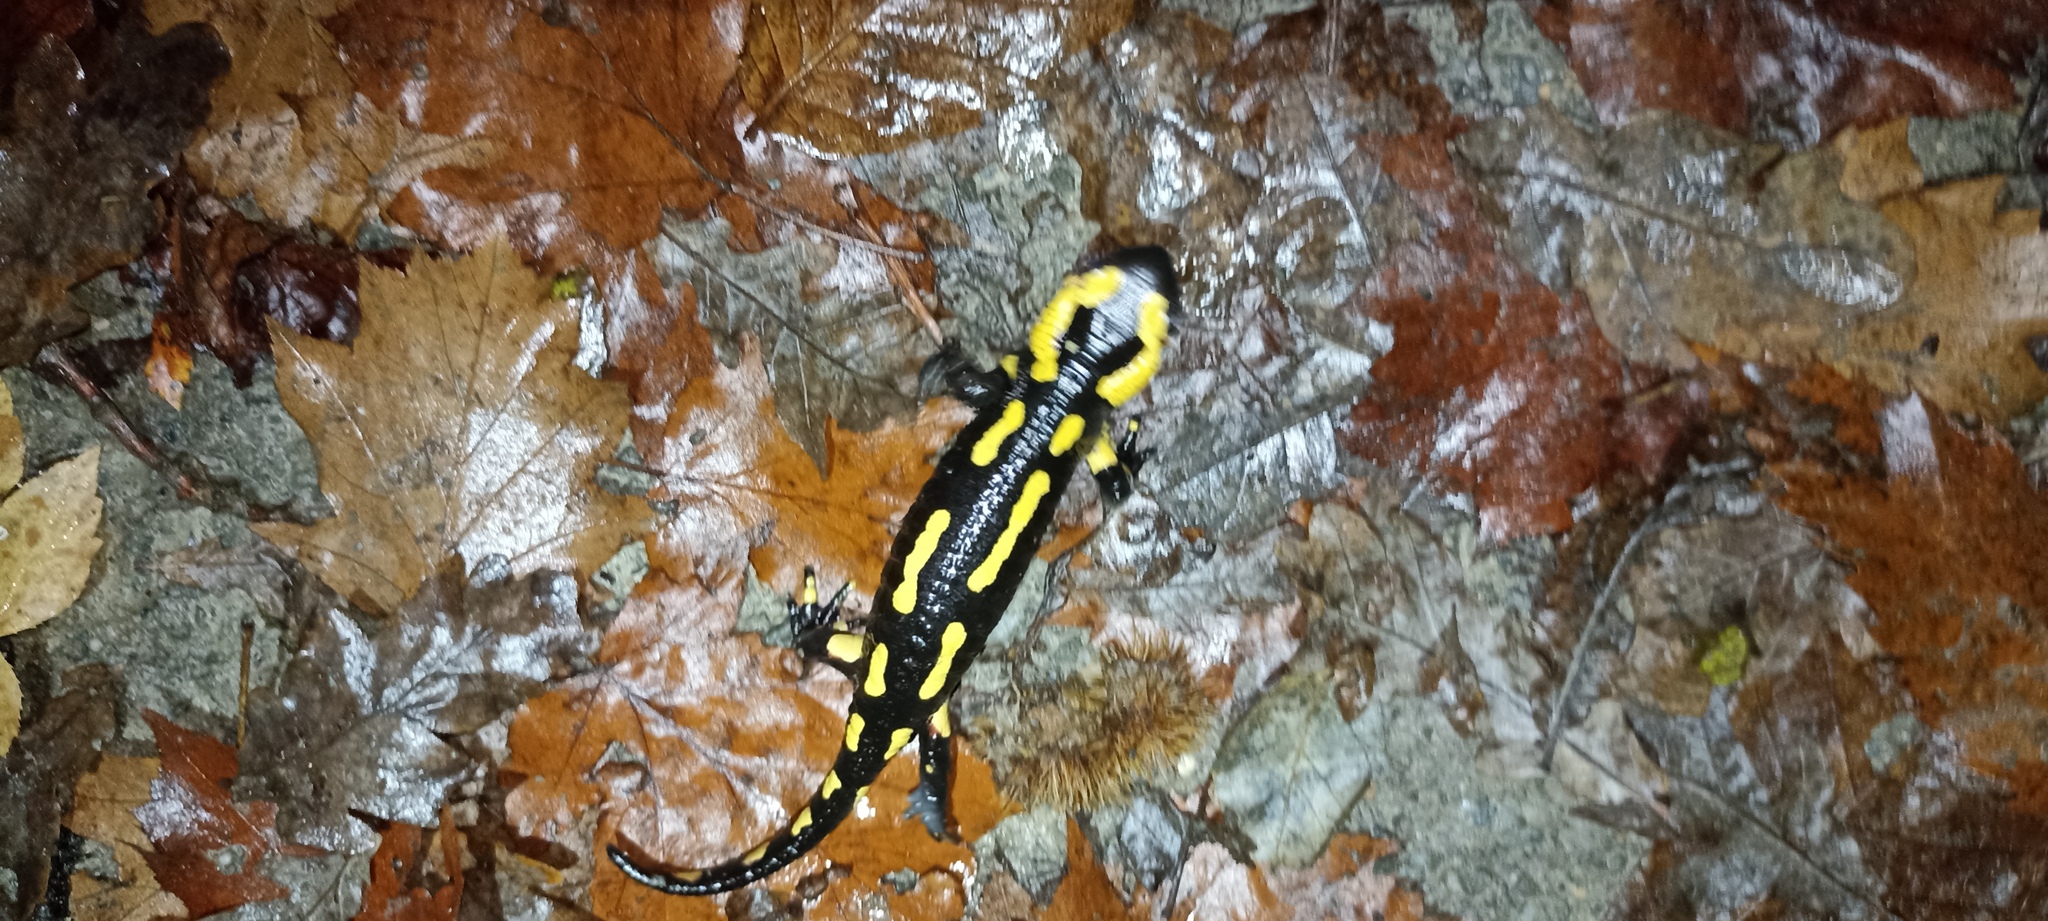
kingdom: Animalia
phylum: Chordata
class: Amphibia
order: Caudata
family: Salamandridae
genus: Salamandra
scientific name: Salamandra salamandra
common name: Fire salamander
